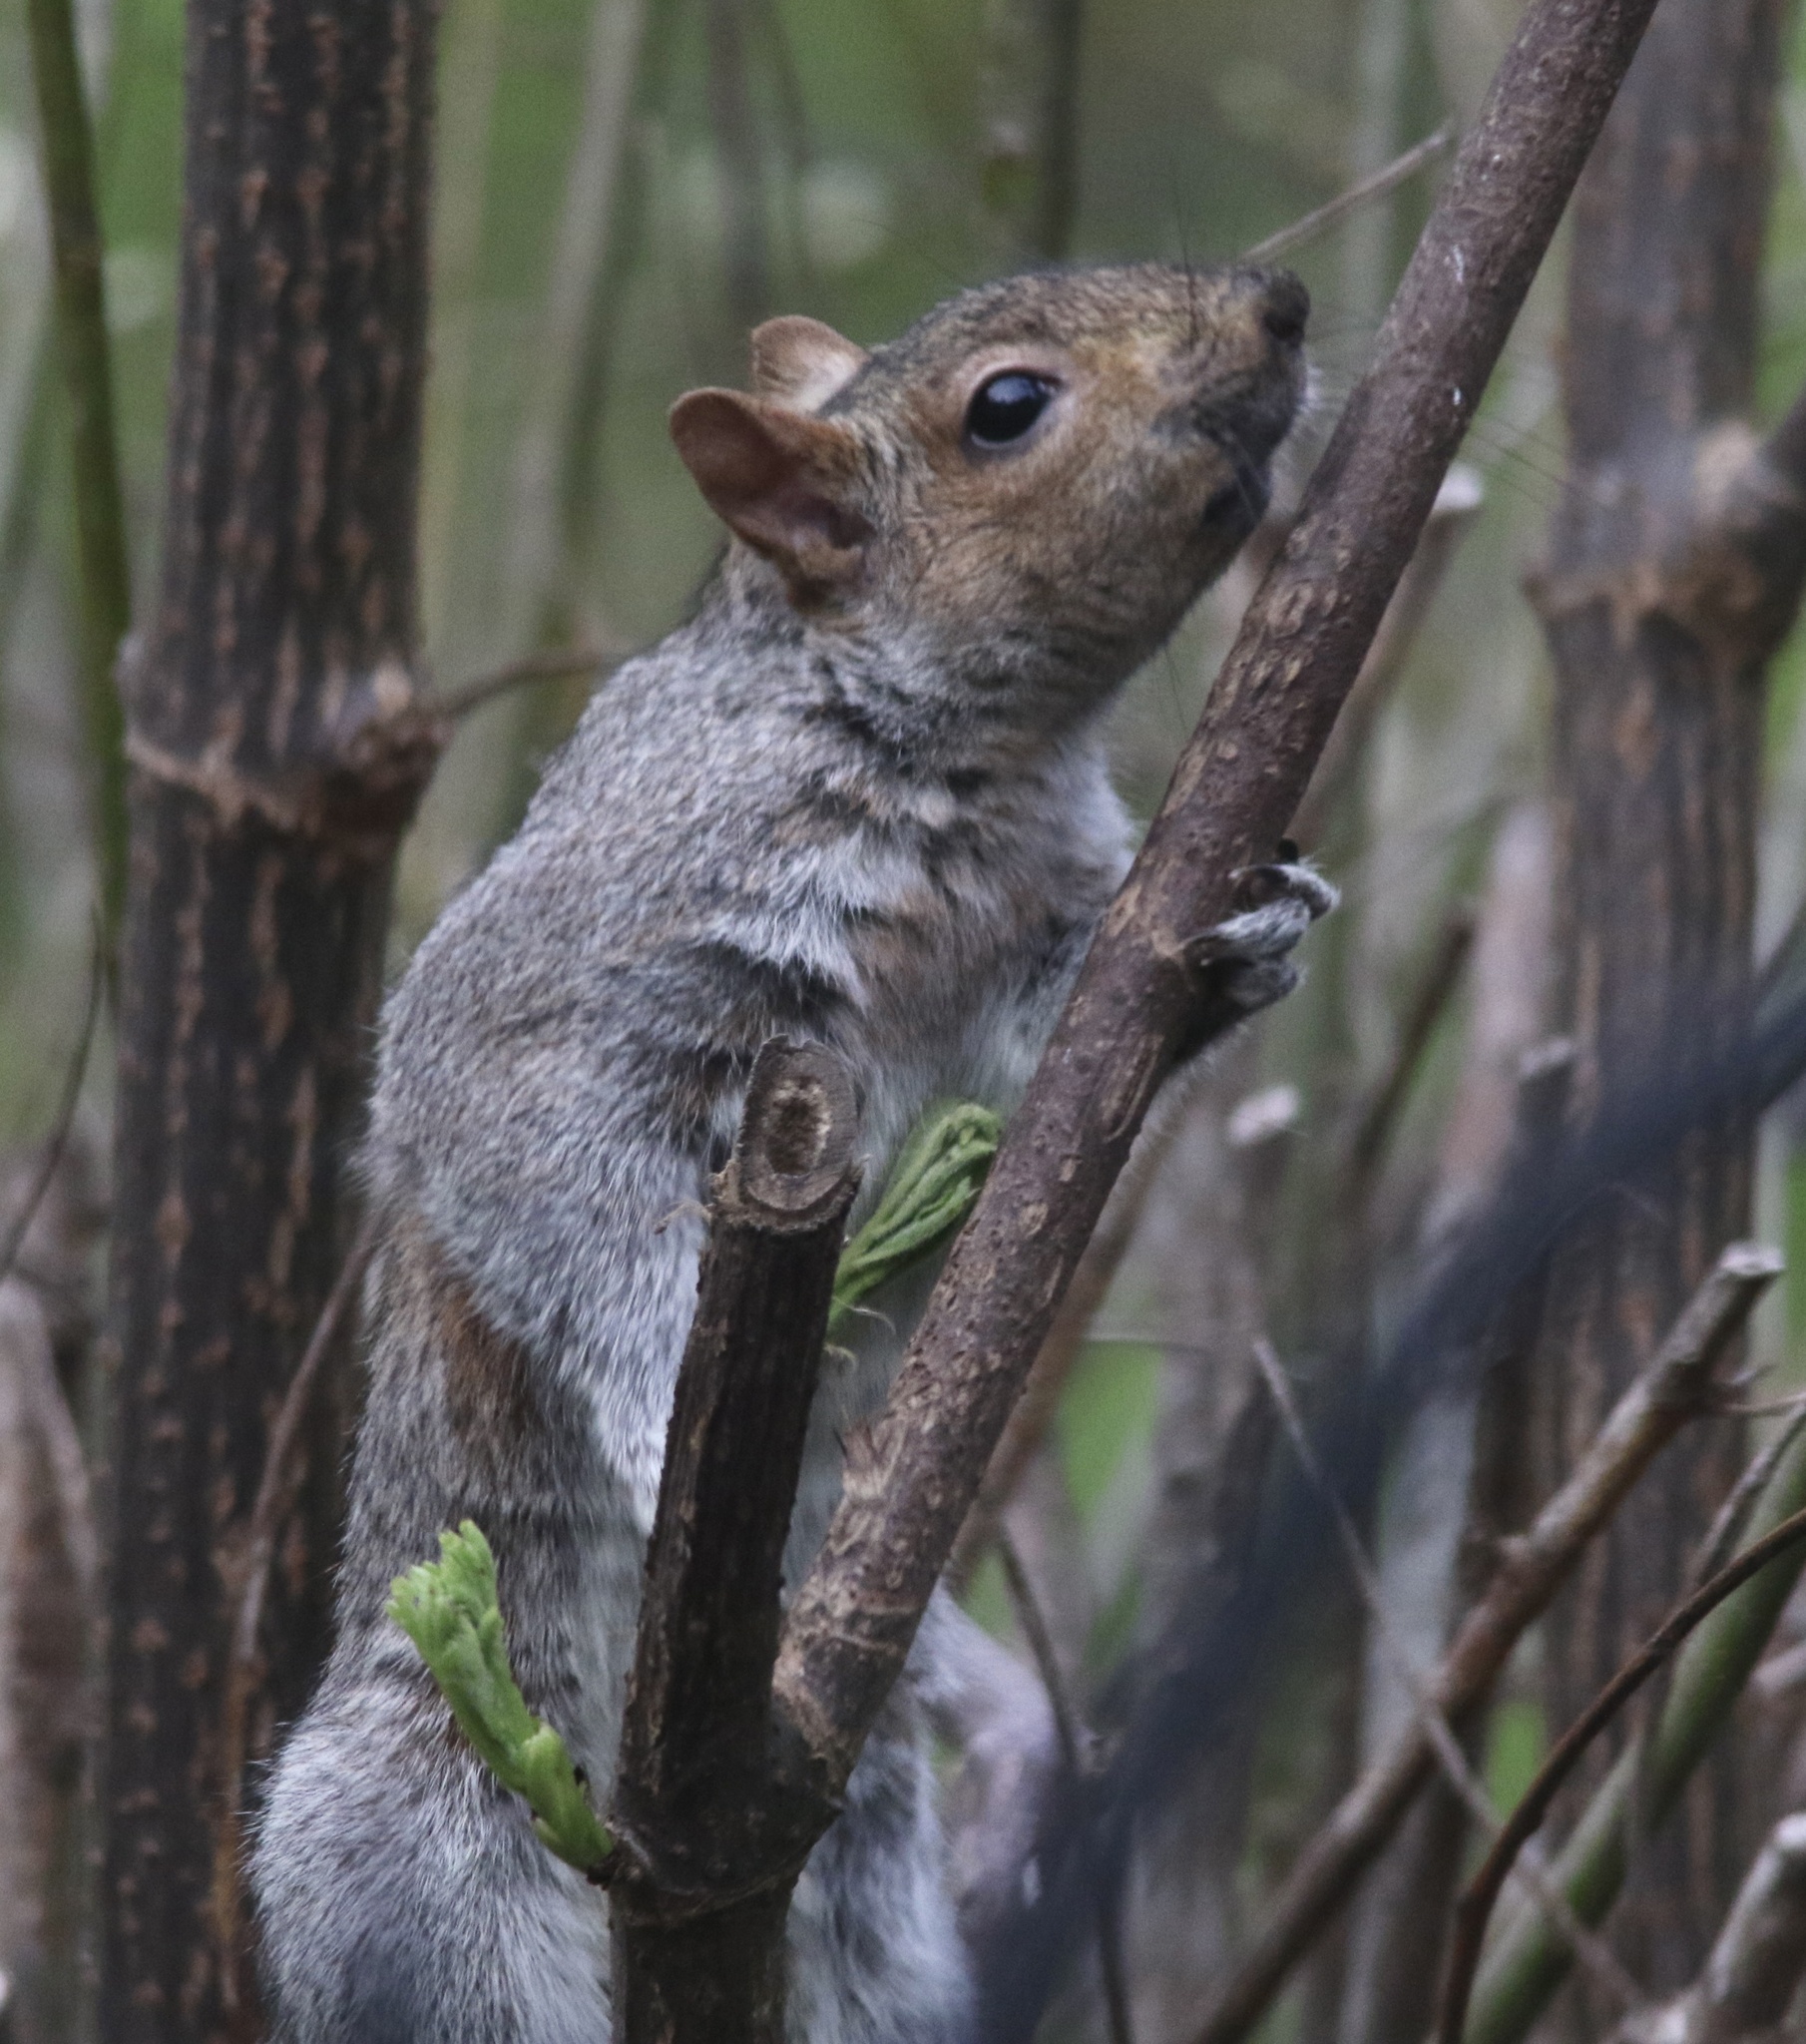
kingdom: Animalia
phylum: Chordata
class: Mammalia
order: Rodentia
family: Sciuridae
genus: Sciurus
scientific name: Sciurus carolinensis
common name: Eastern gray squirrel
